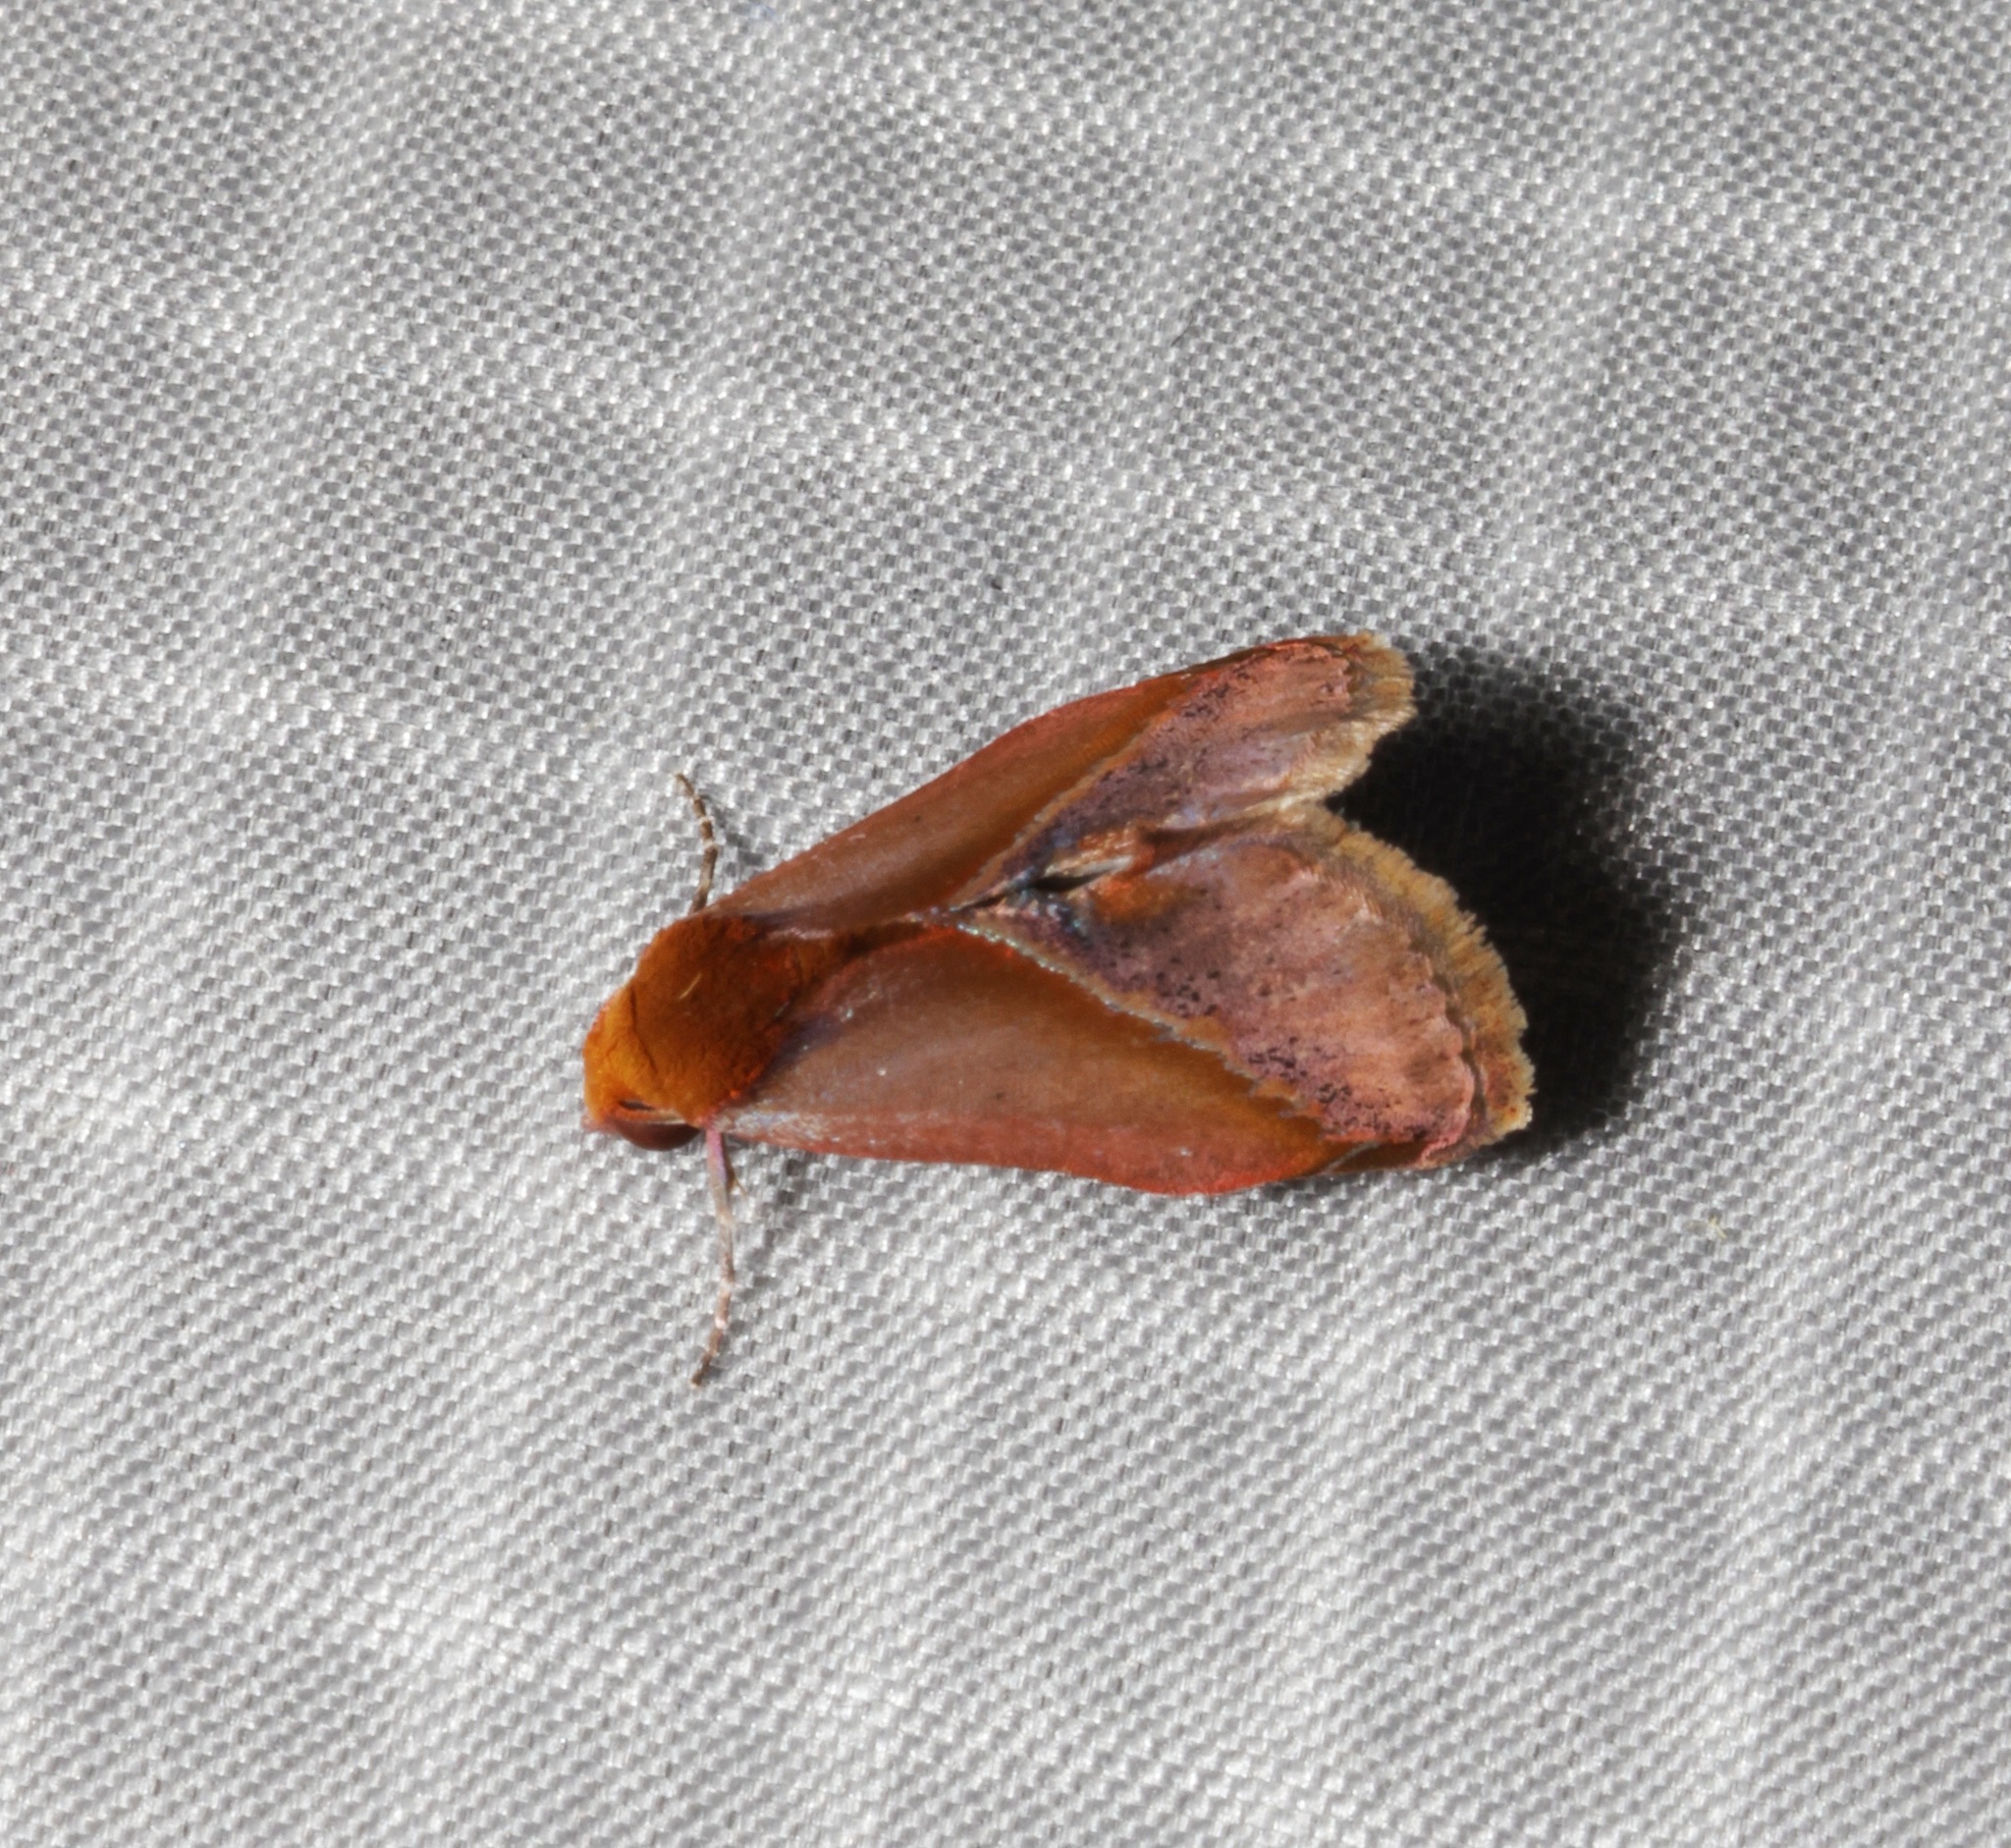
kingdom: Animalia
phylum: Arthropoda
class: Insecta
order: Lepidoptera
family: Erebidae
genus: Arsacia
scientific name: Arsacia rectalis
